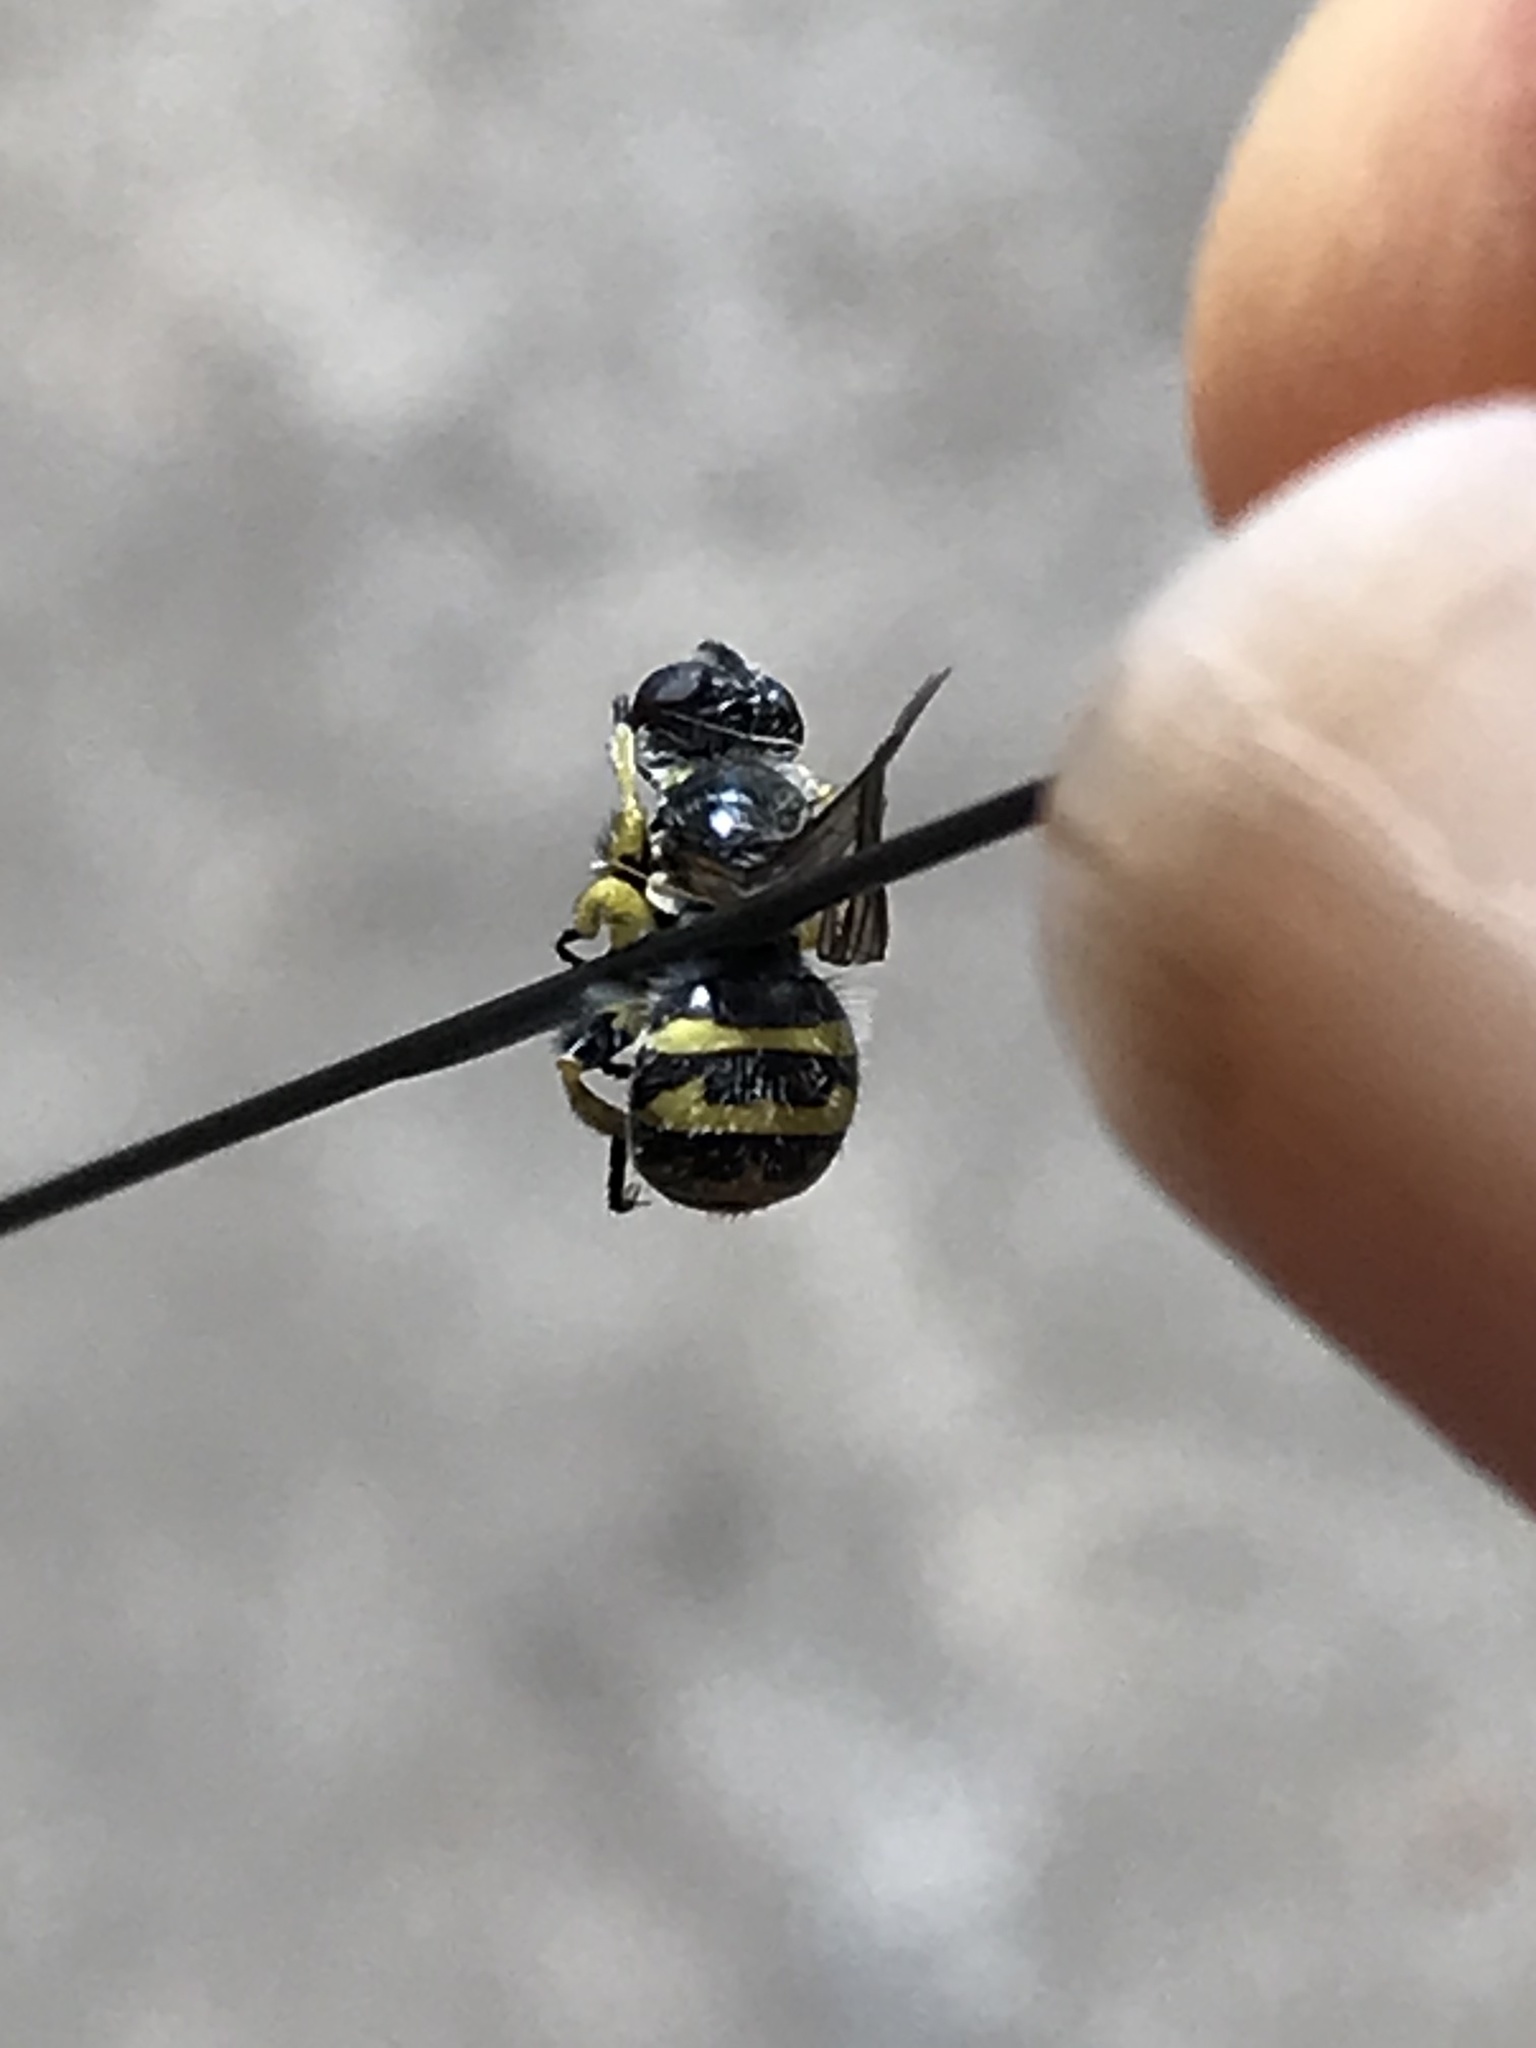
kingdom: Animalia
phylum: Arthropoda
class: Insecta
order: Diptera
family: Conopidae
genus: Dalmannia
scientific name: Dalmannia heterotricha
